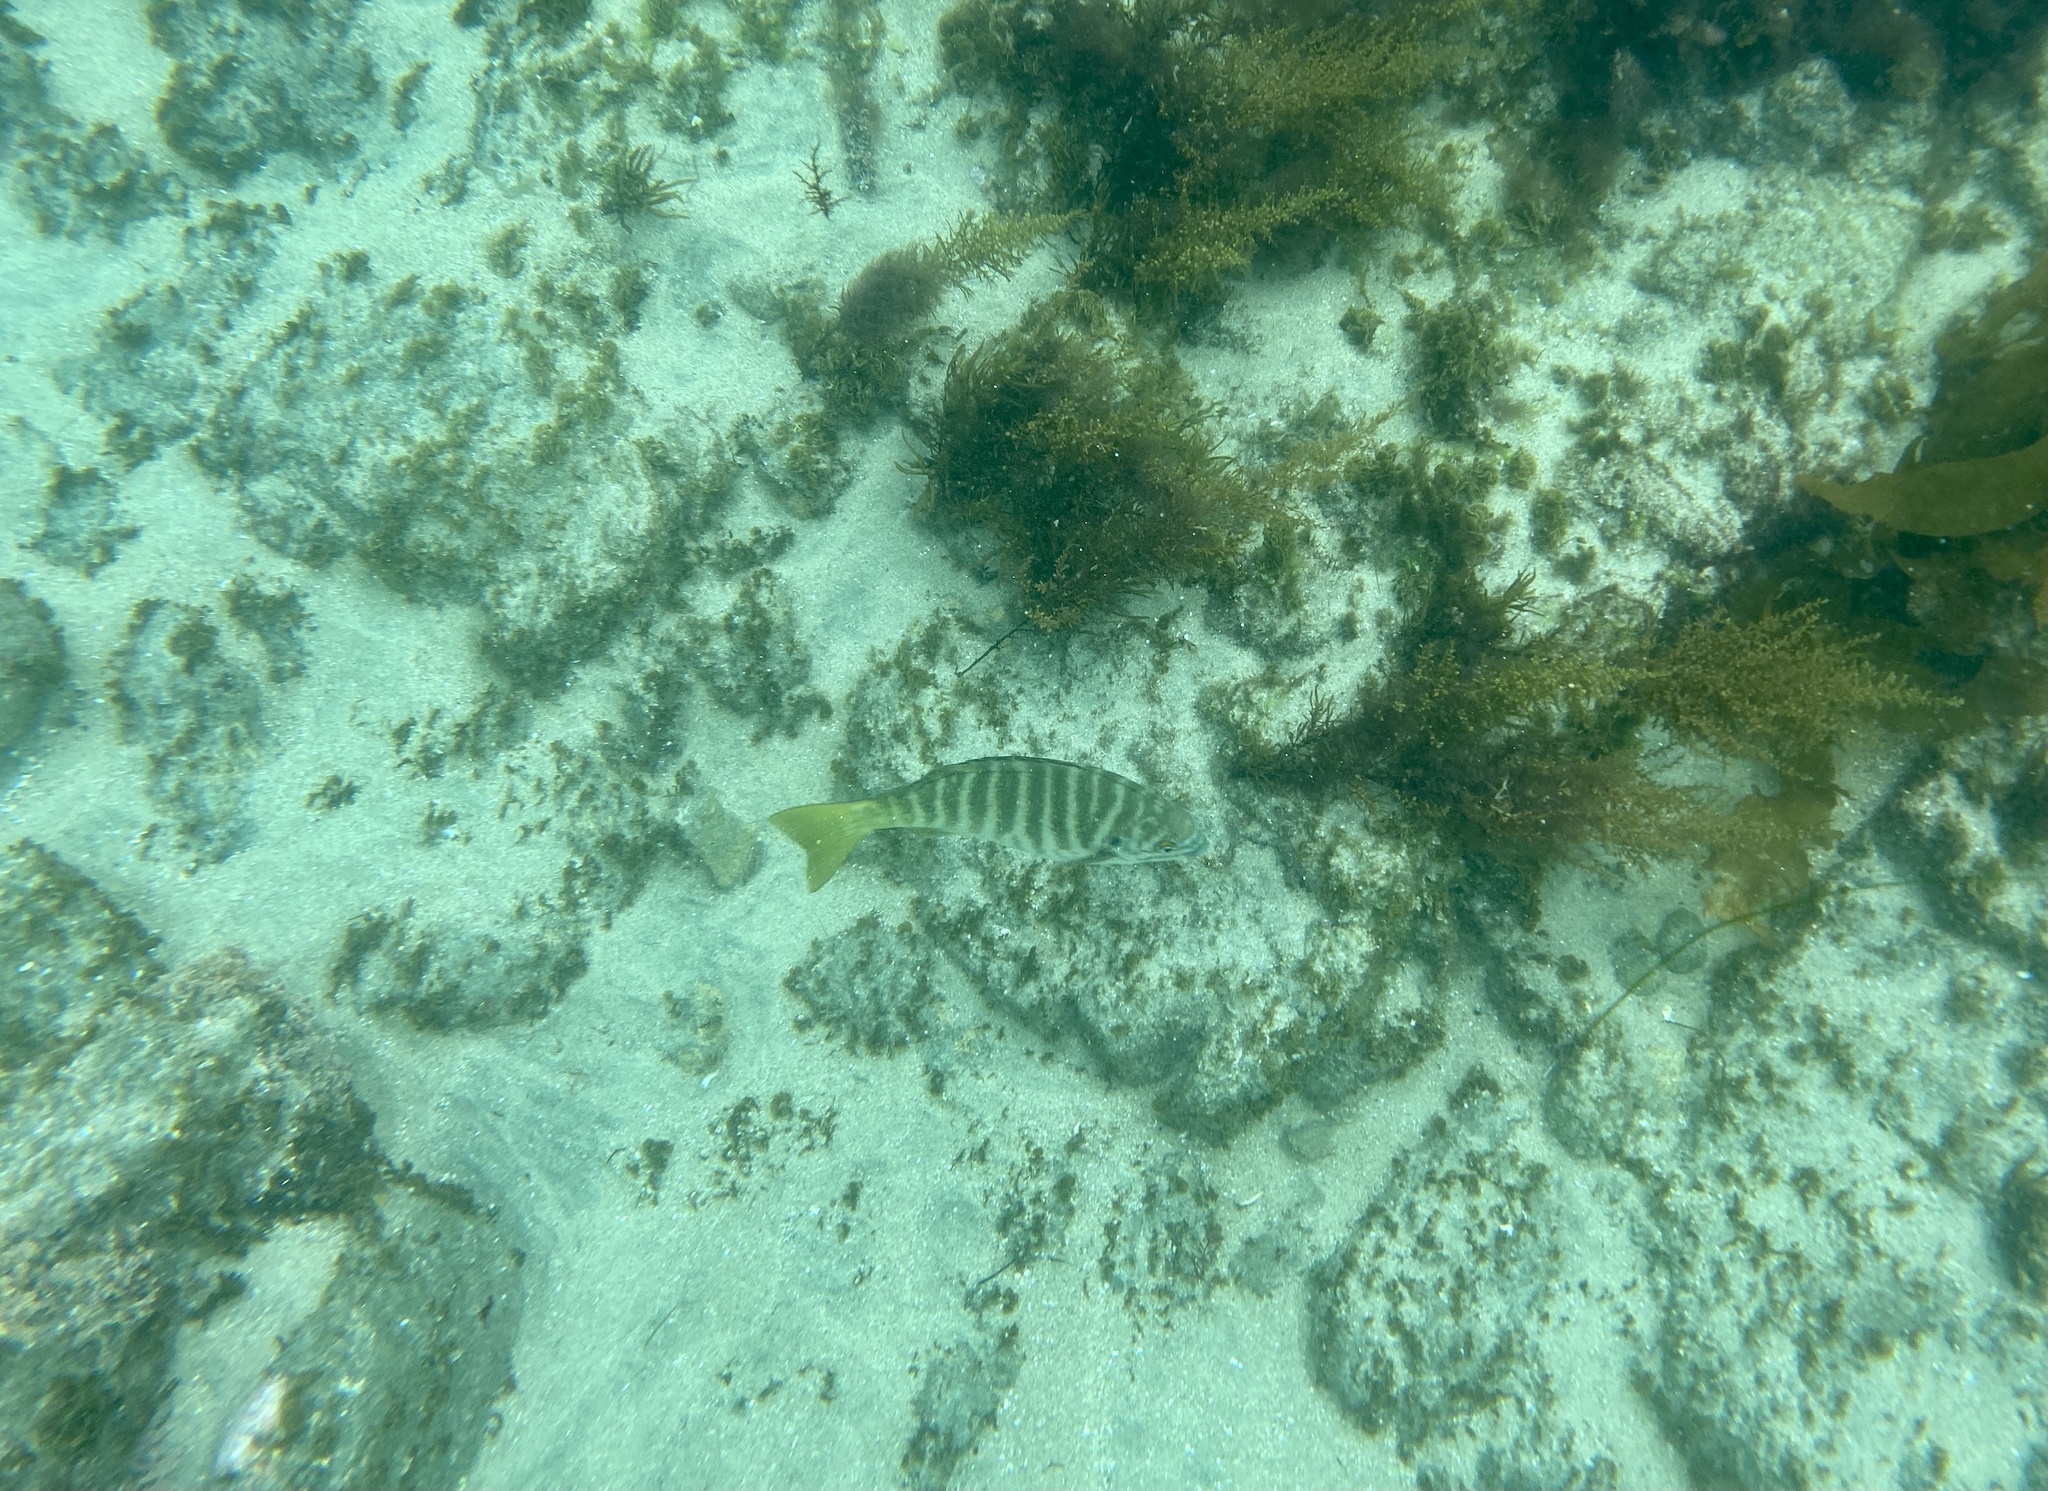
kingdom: Animalia
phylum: Chordata
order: Perciformes
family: Kyphosidae
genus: Kyphosus
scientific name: Kyphosus azureus
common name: Perch
